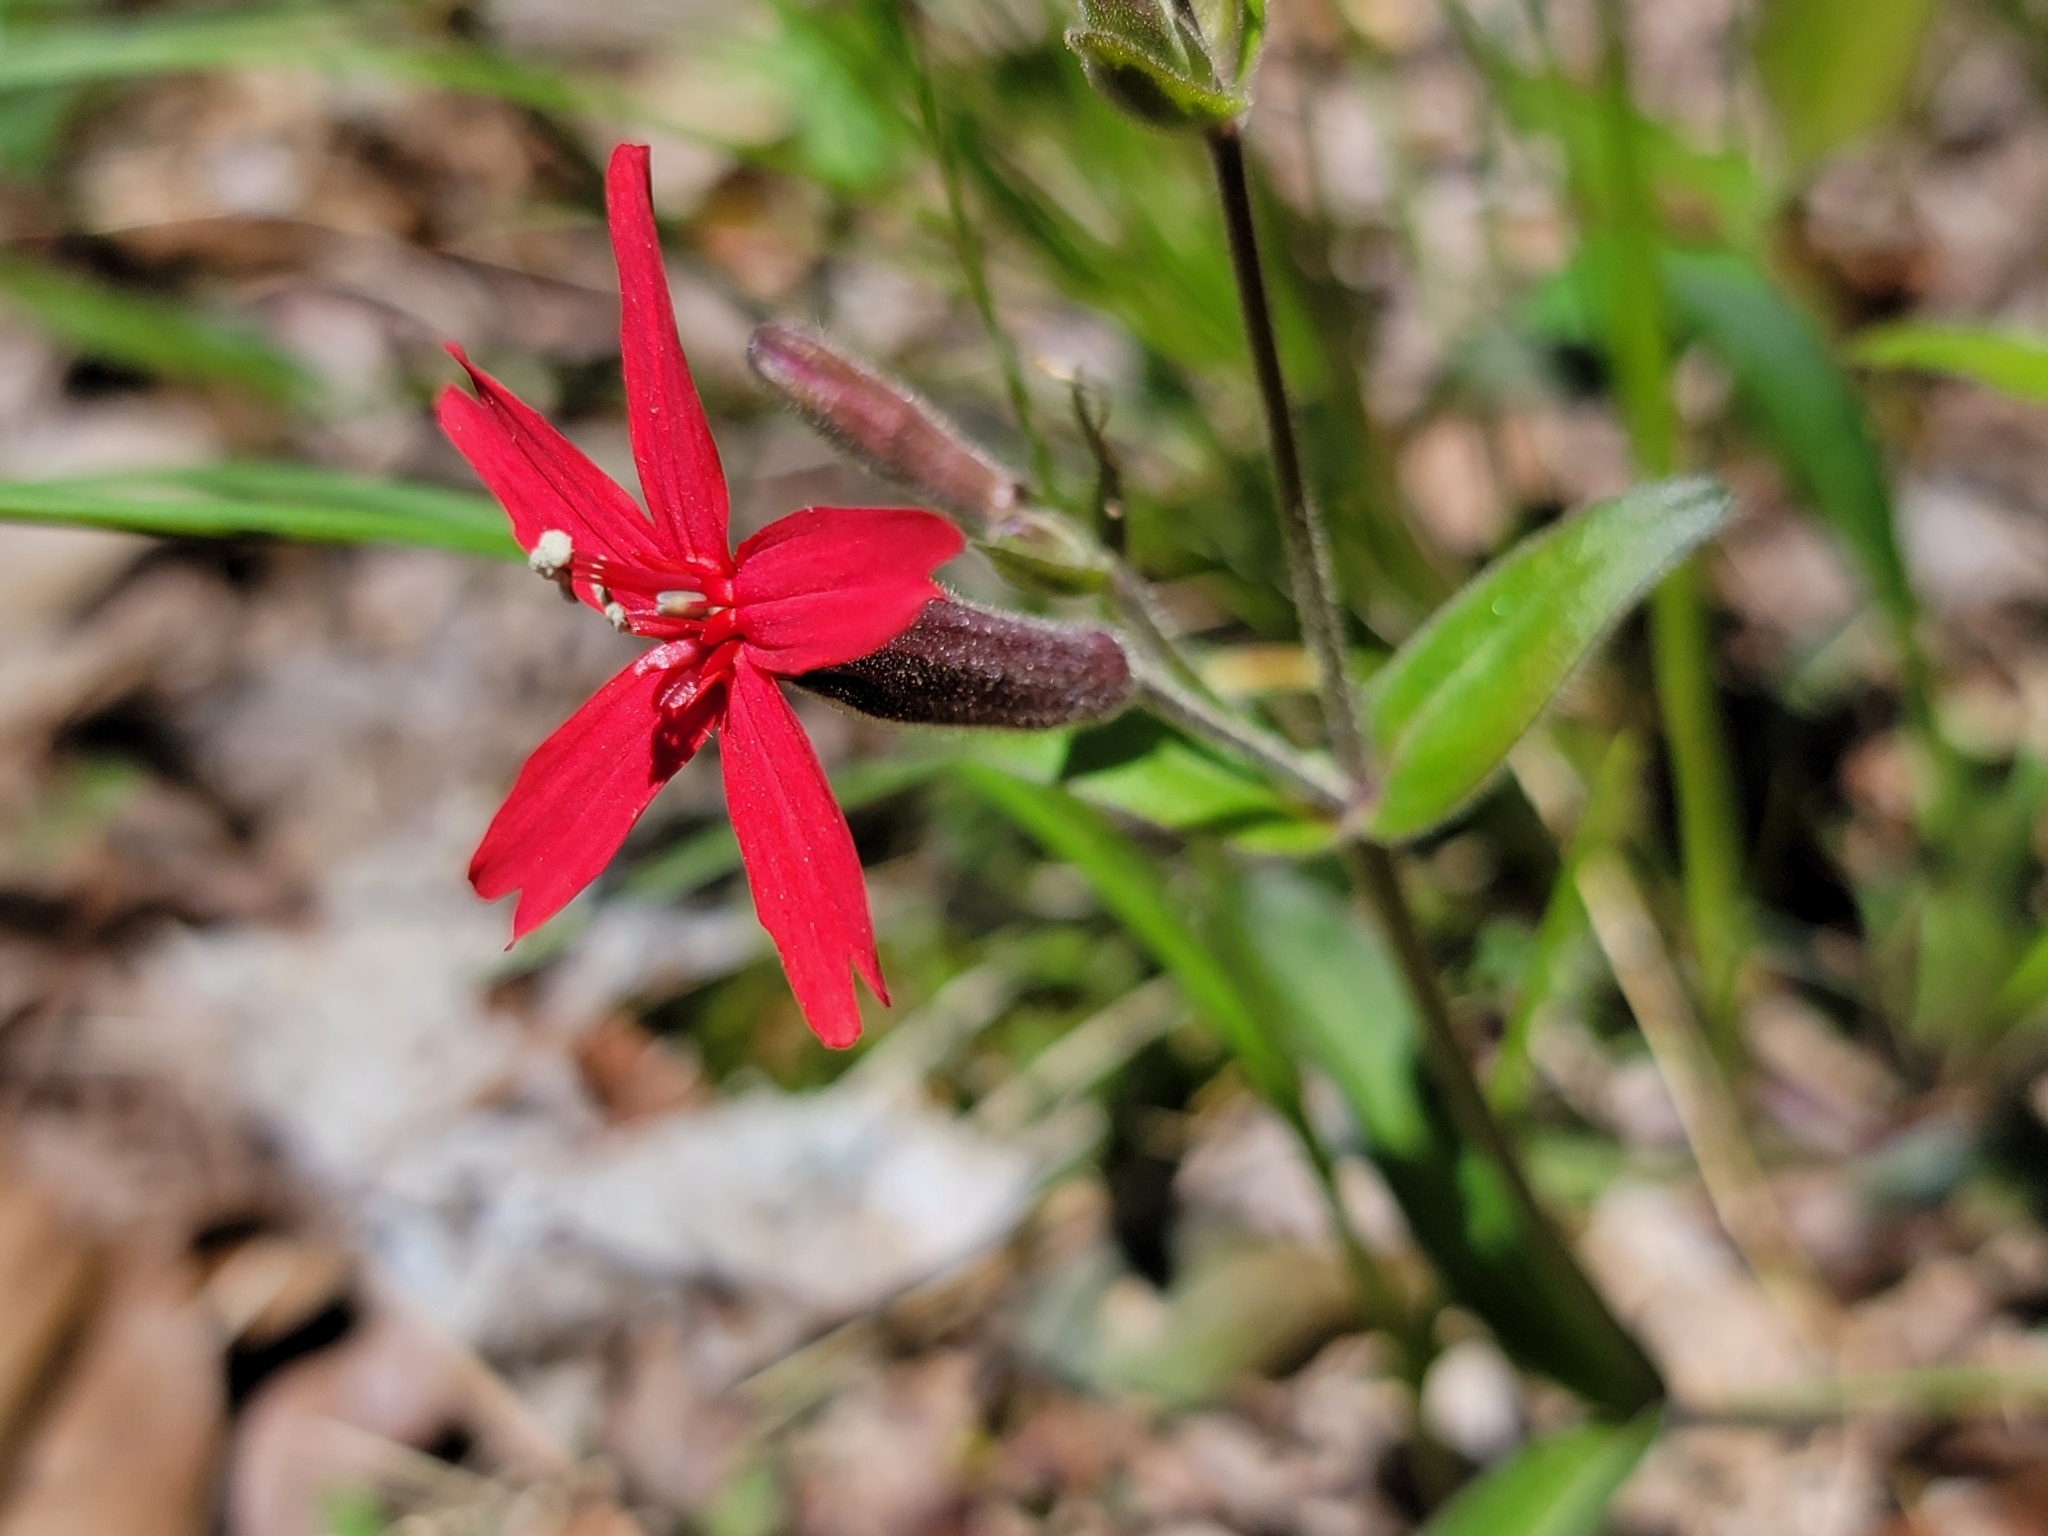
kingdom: Plantae
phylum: Tracheophyta
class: Magnoliopsida
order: Caryophyllales
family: Caryophyllaceae
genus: Silene
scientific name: Silene virginica
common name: Fire-pink
